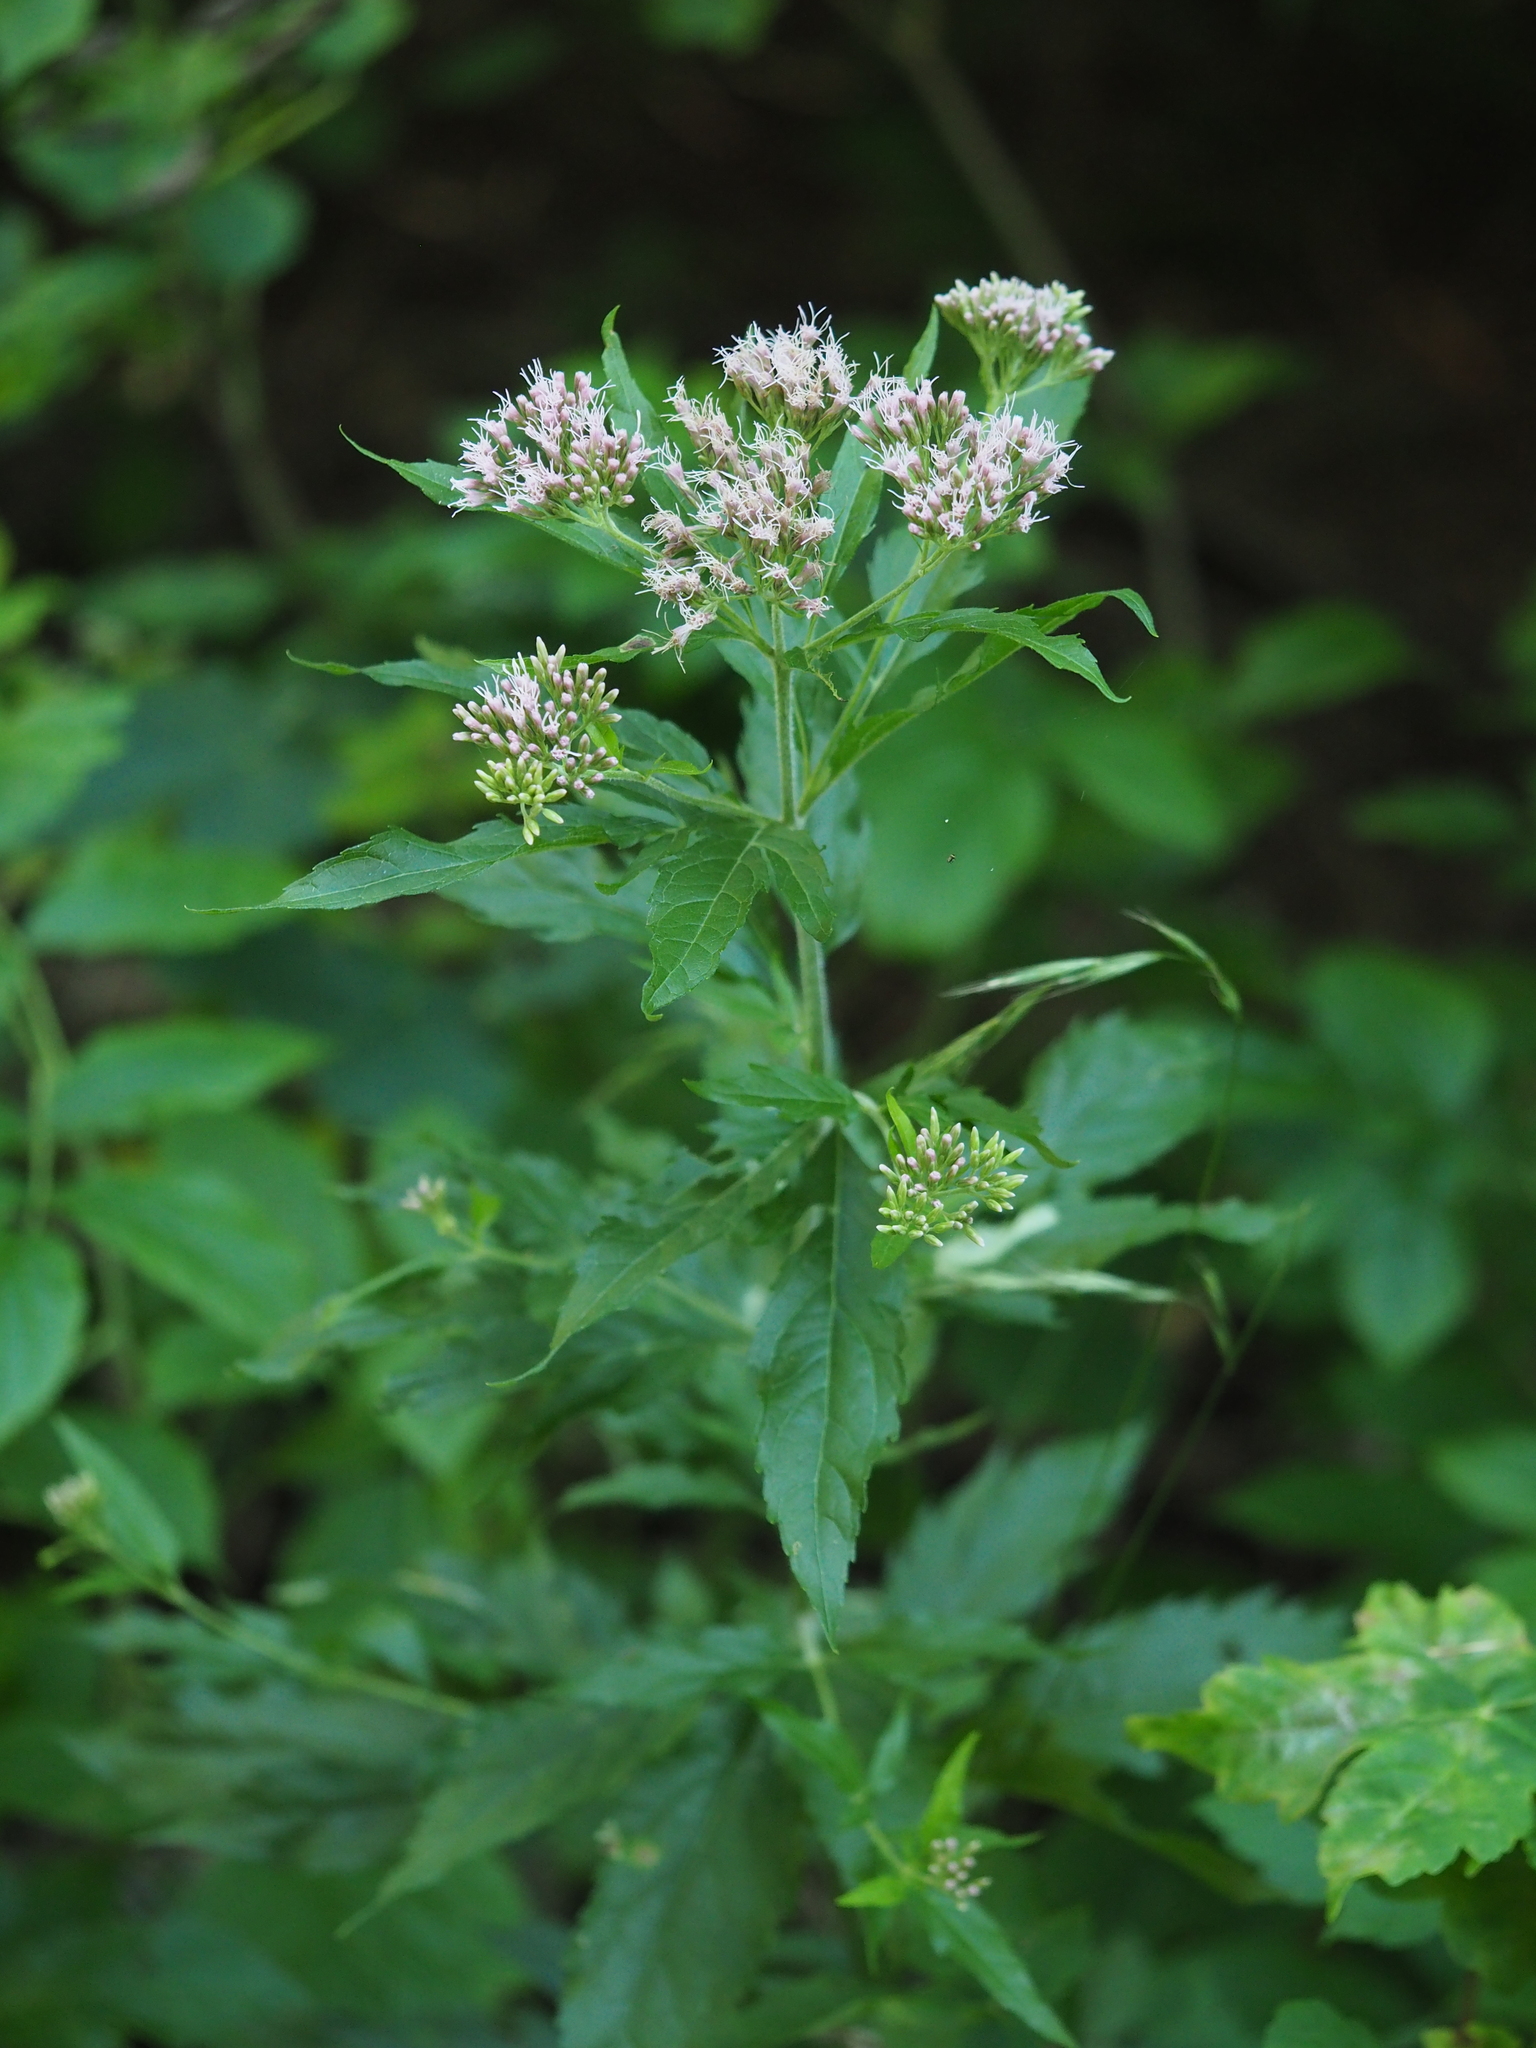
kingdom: Plantae
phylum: Tracheophyta
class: Magnoliopsida
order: Asterales
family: Asteraceae
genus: Eupatorium
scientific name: Eupatorium cannabinum
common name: Hemp-agrimony
